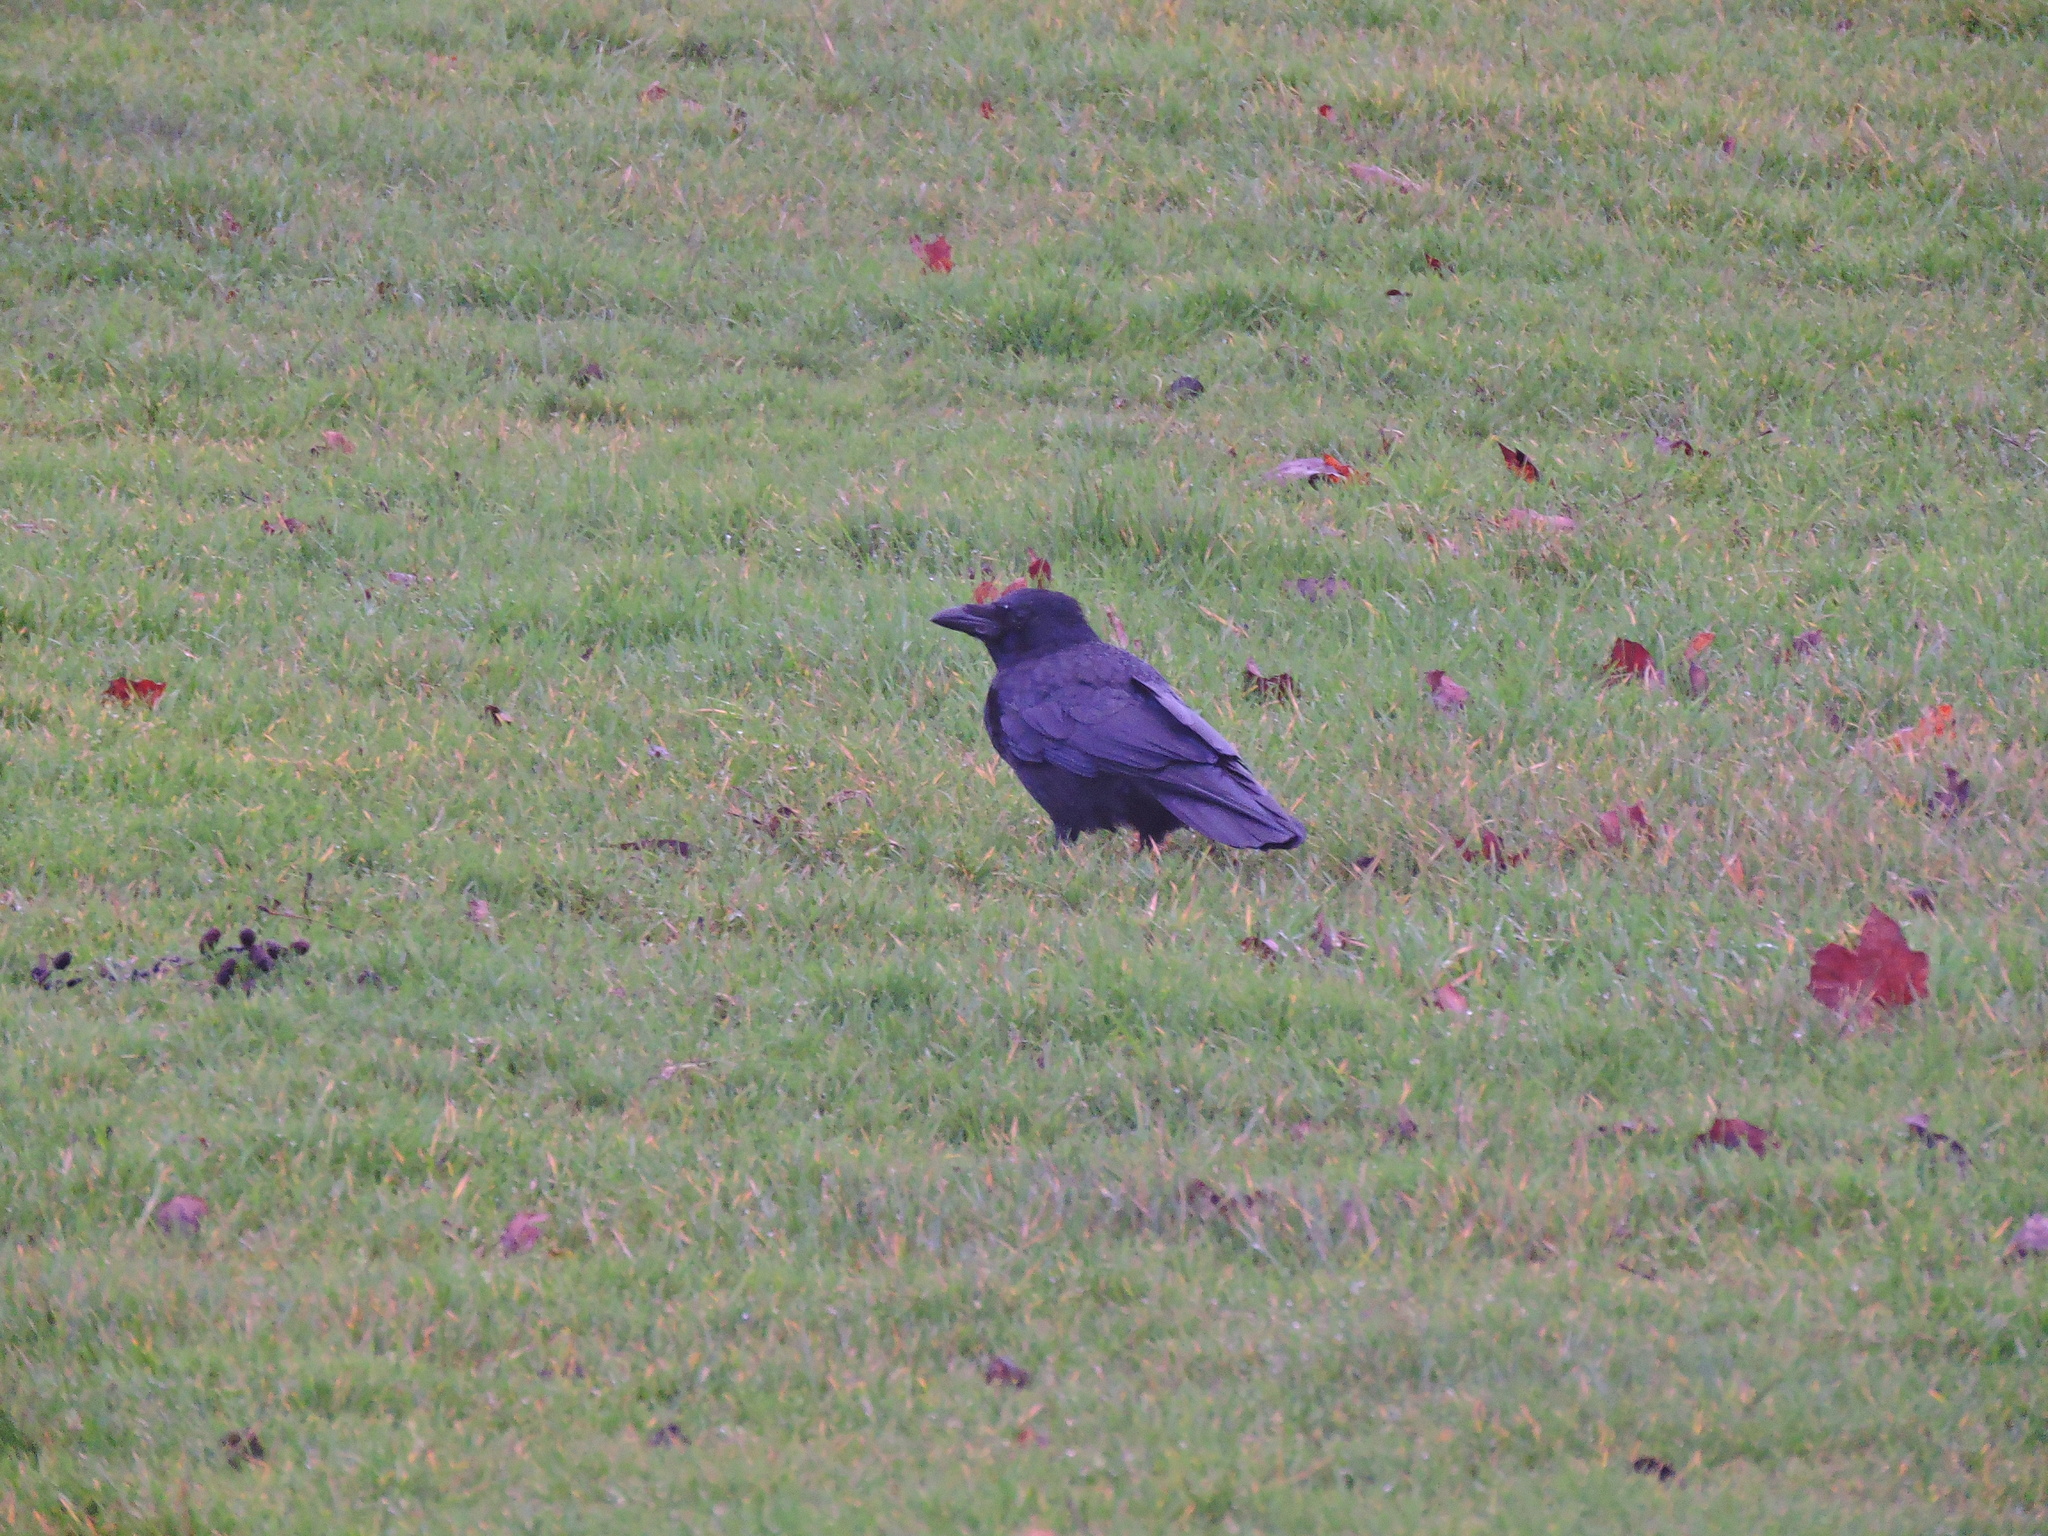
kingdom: Animalia
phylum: Chordata
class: Aves
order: Passeriformes
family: Corvidae
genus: Corvus
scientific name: Corvus corone
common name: Carrion crow
